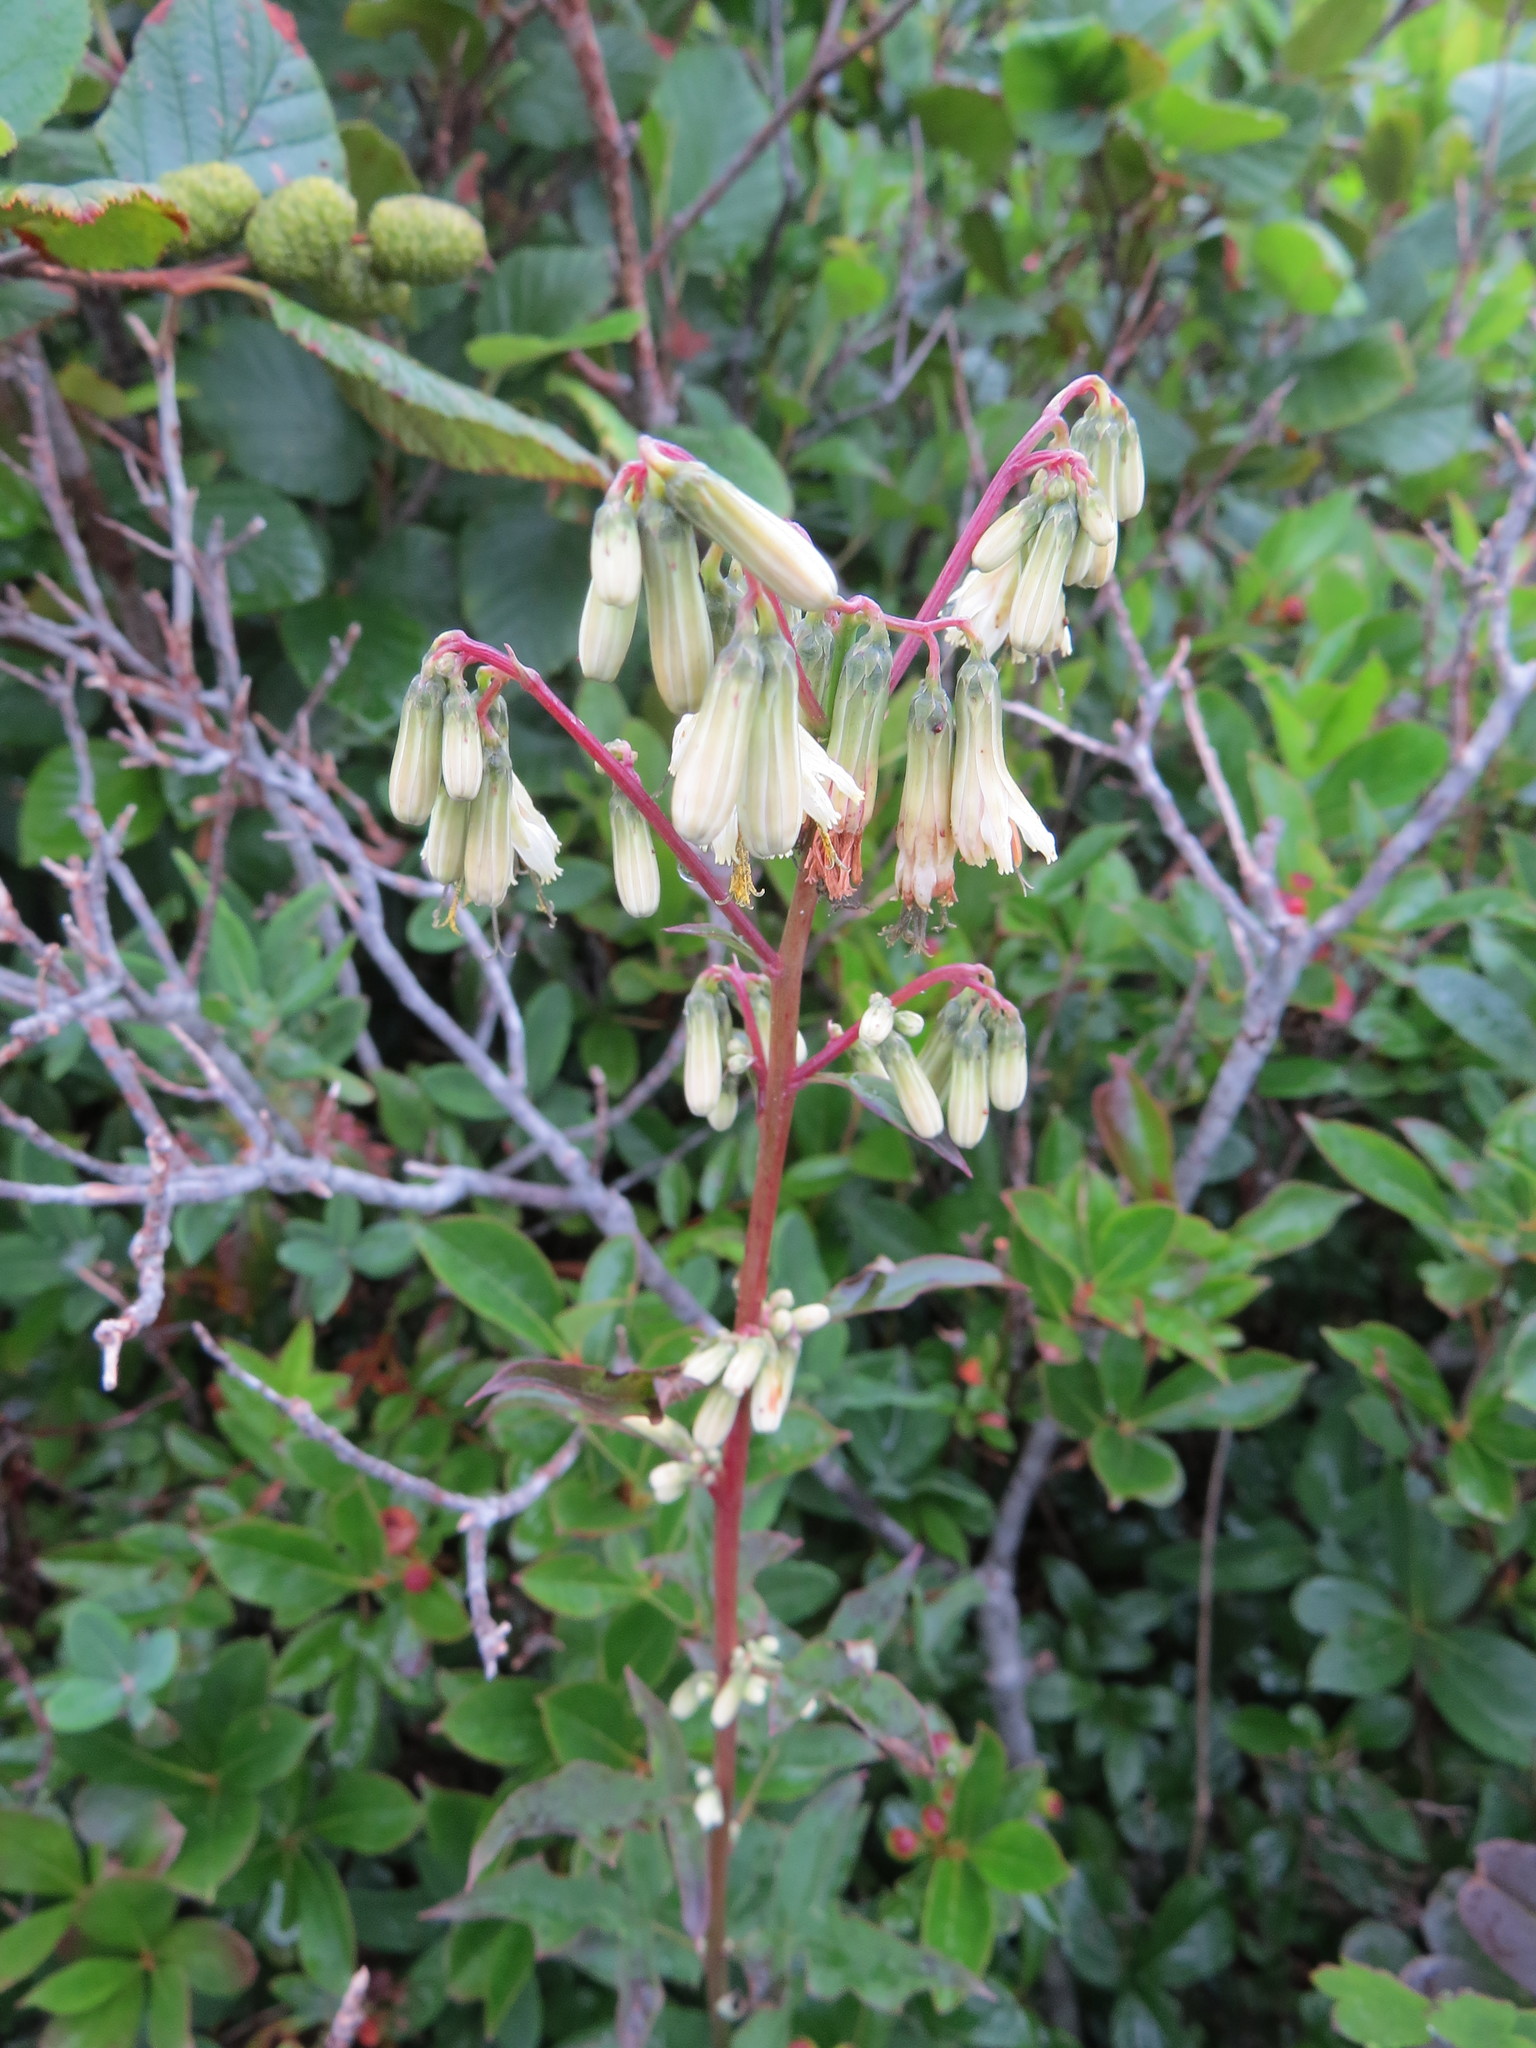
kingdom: Plantae
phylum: Tracheophyta
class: Magnoliopsida
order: Asterales
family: Asteraceae
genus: Nabalus
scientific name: Nabalus trifoliolatus
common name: Gall-of-the-earth
